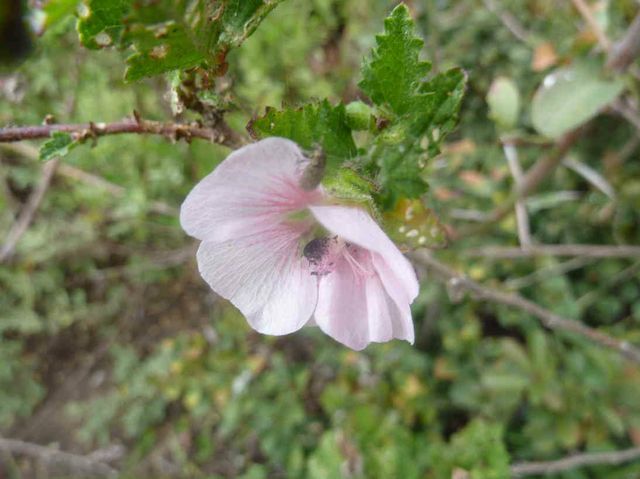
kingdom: Plantae
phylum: Tracheophyta
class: Magnoliopsida
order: Malvales
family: Malvaceae
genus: Anisodontea
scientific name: Anisodontea scabrosa
